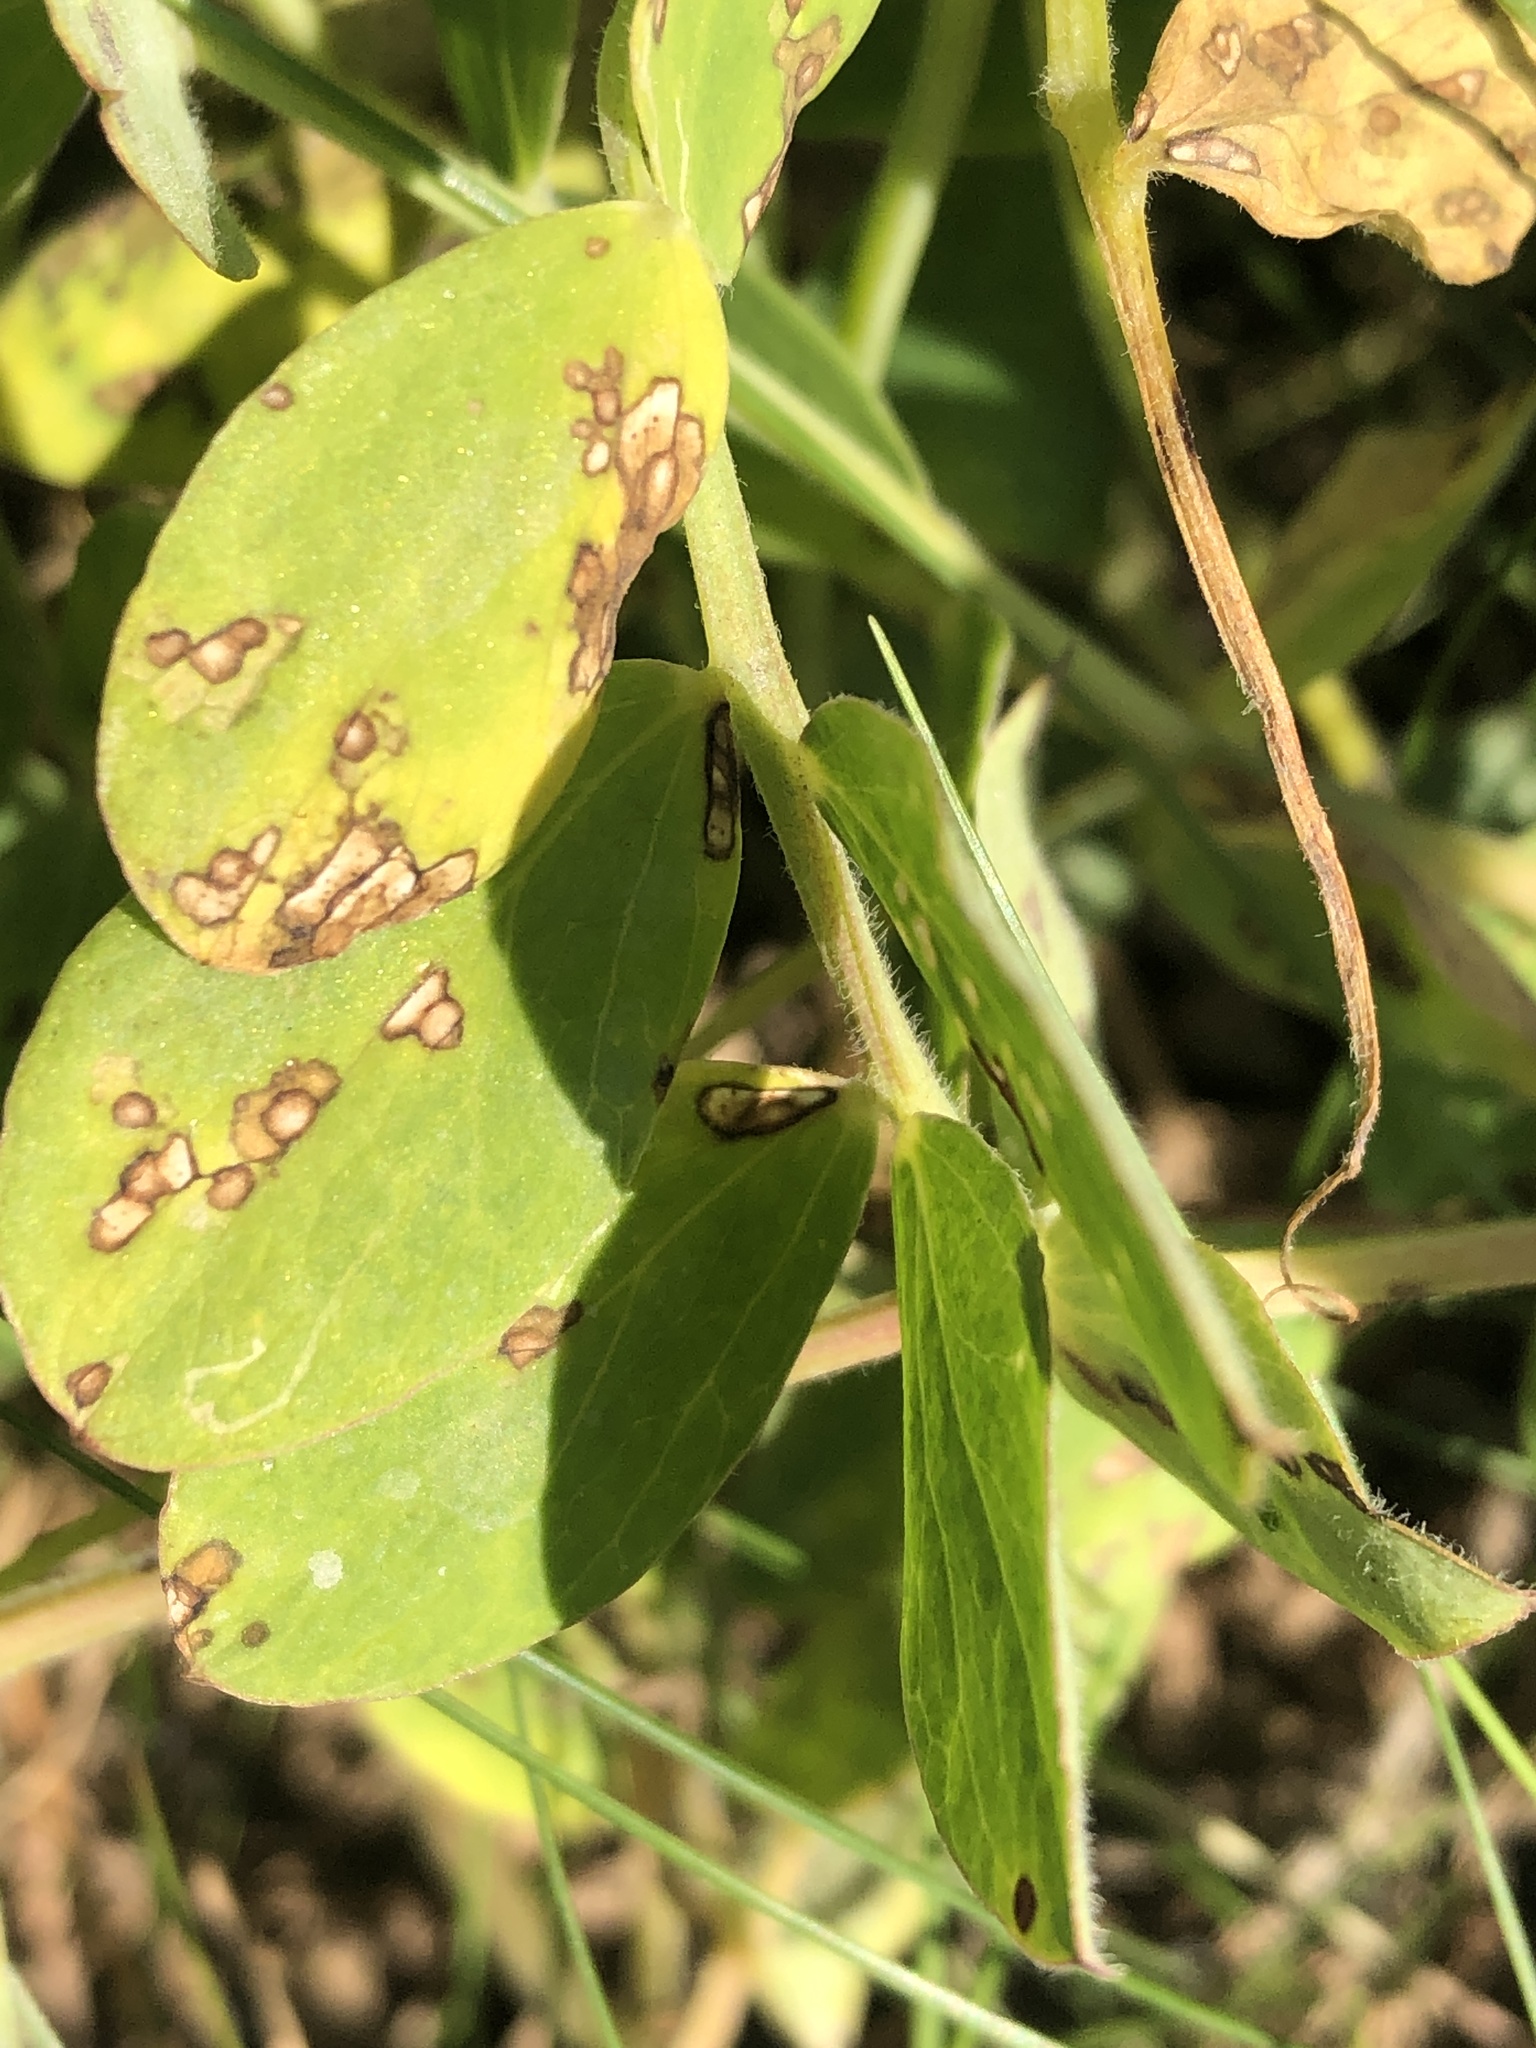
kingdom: Plantae
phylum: Tracheophyta
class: Magnoliopsida
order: Fabales
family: Fabaceae
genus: Lathyrus
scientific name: Lathyrus japonicus
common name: Sea pea
